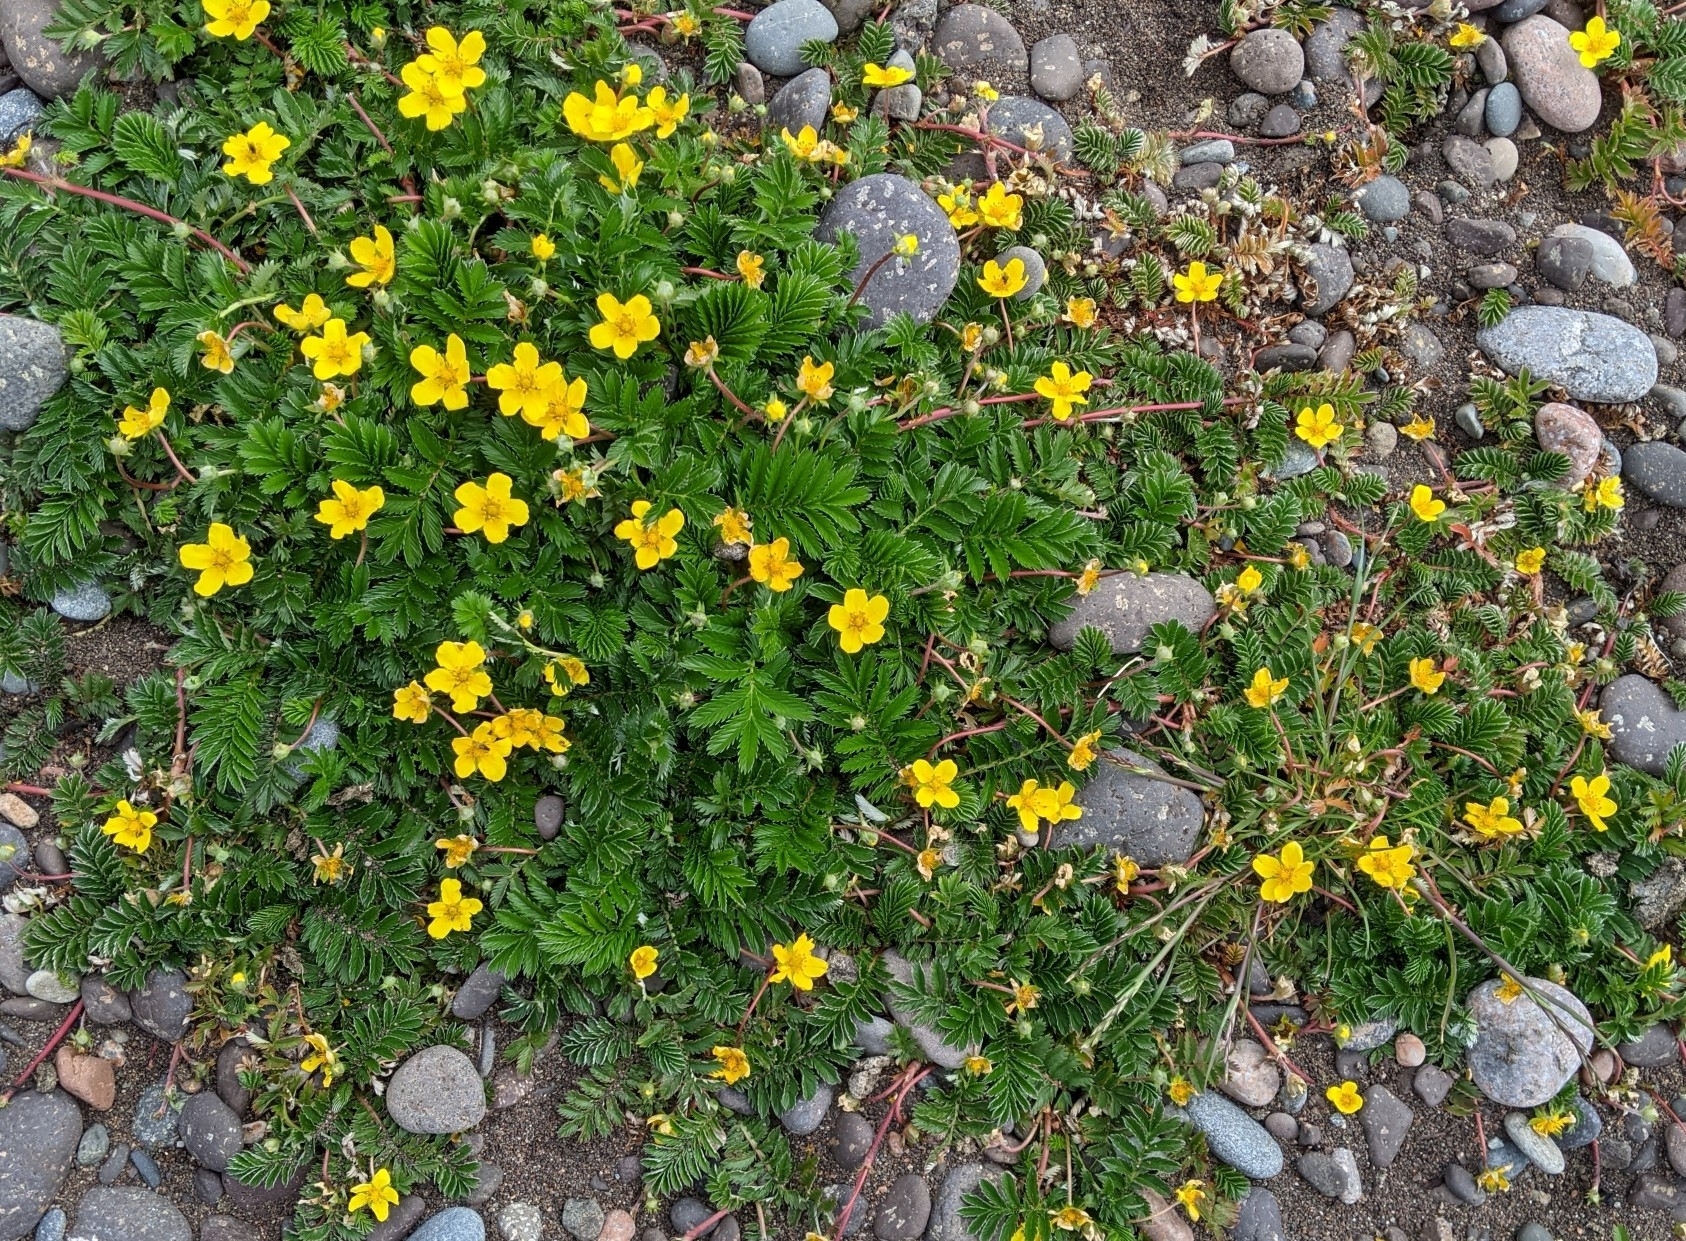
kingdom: Plantae
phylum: Tracheophyta
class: Magnoliopsida
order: Rosales
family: Rosaceae
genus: Argentina
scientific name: Argentina anserina
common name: Common silverweed
